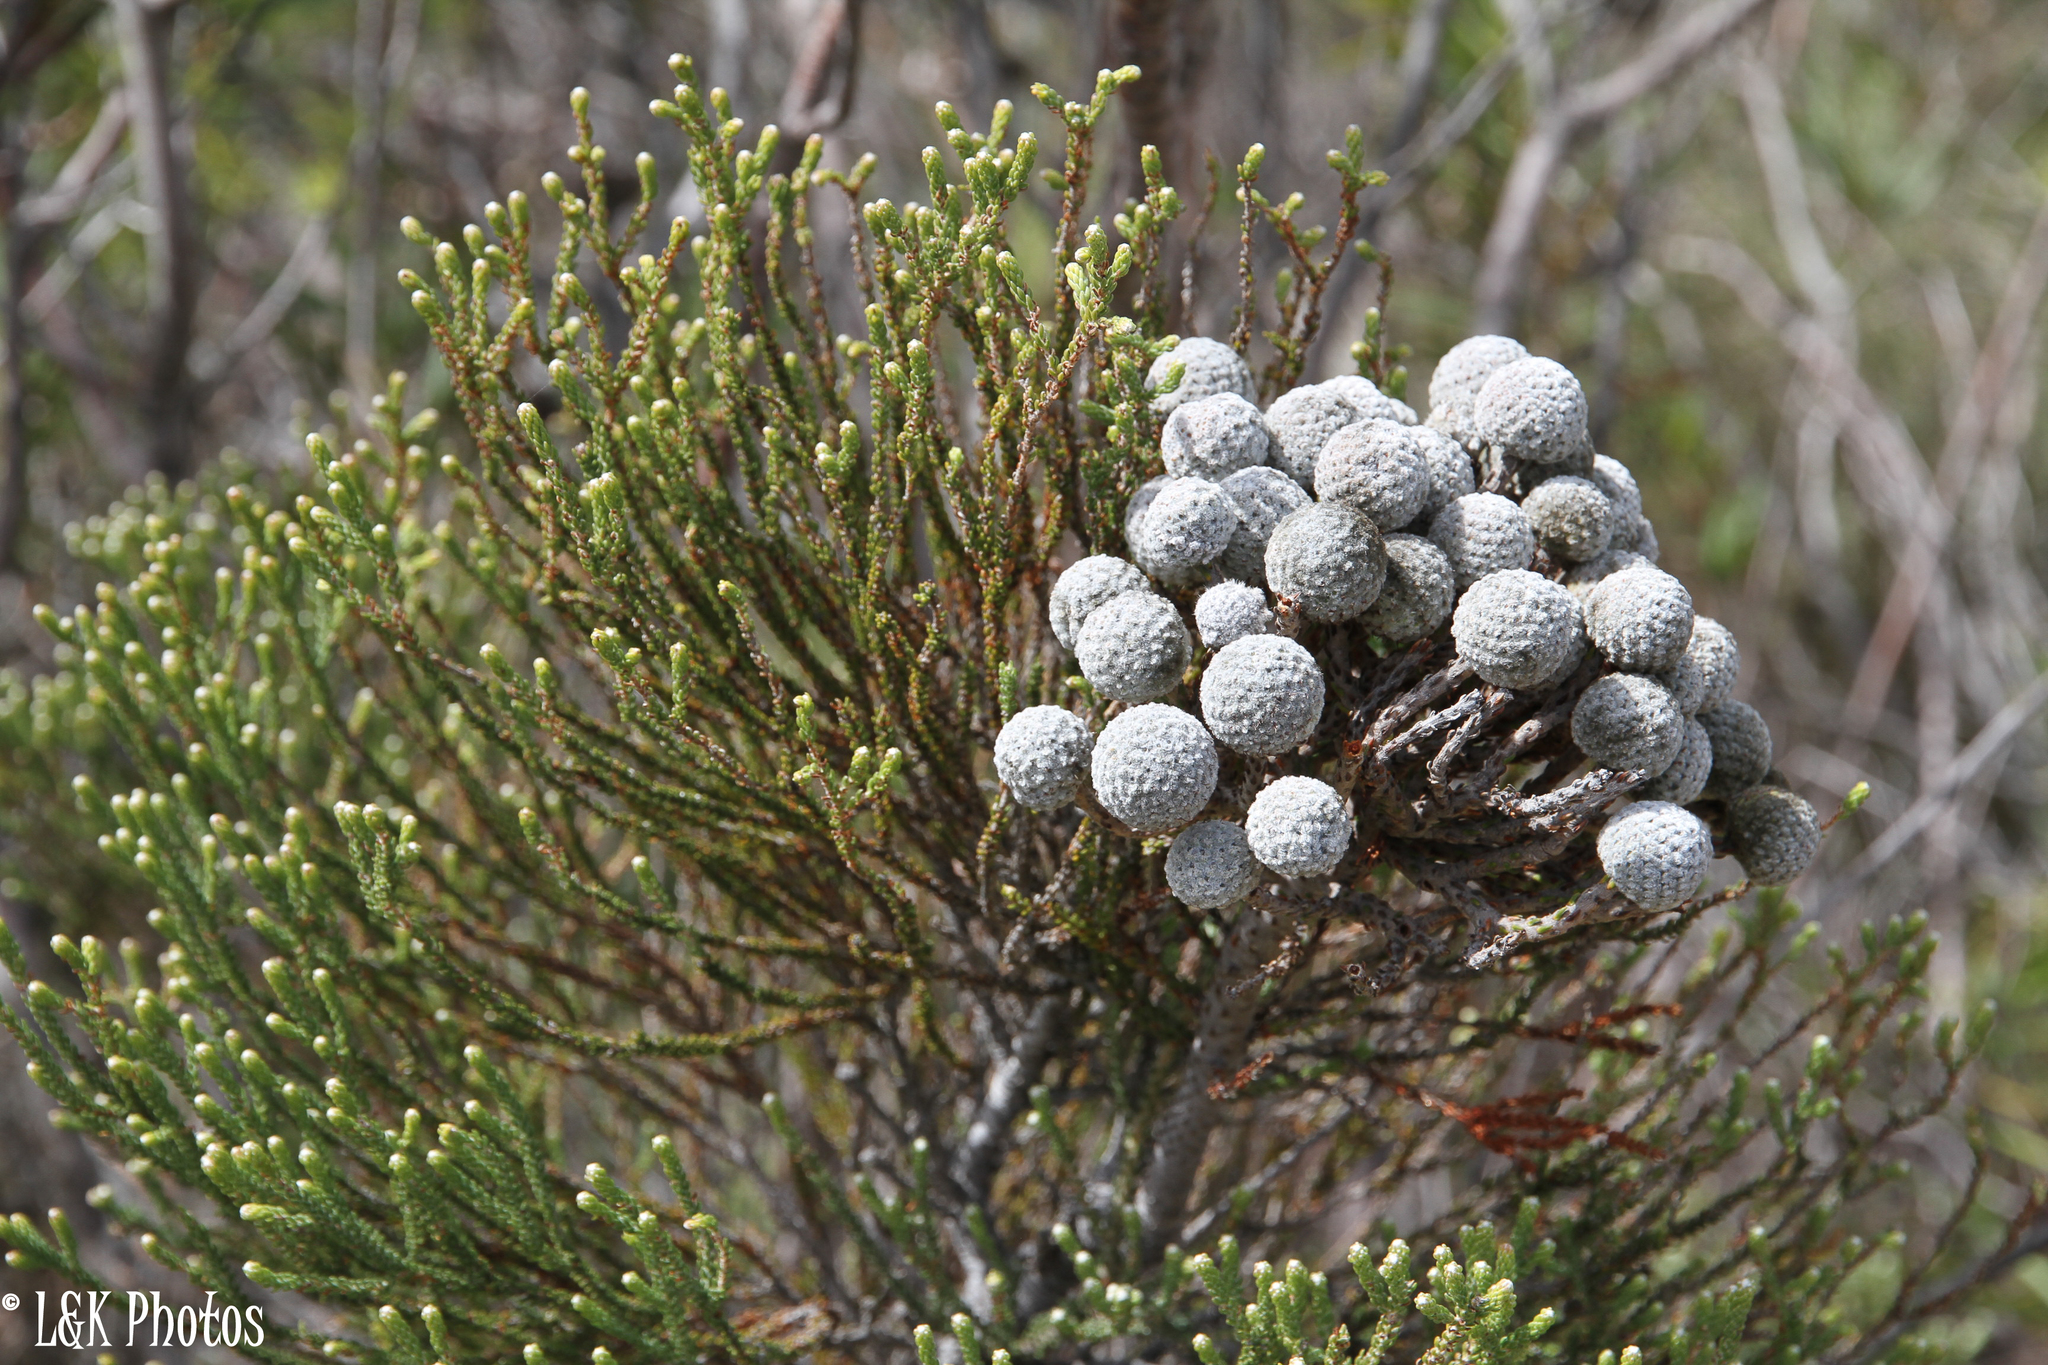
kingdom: Plantae
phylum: Tracheophyta
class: Magnoliopsida
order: Bruniales
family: Bruniaceae
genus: Brunia
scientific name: Brunia noduliflora
